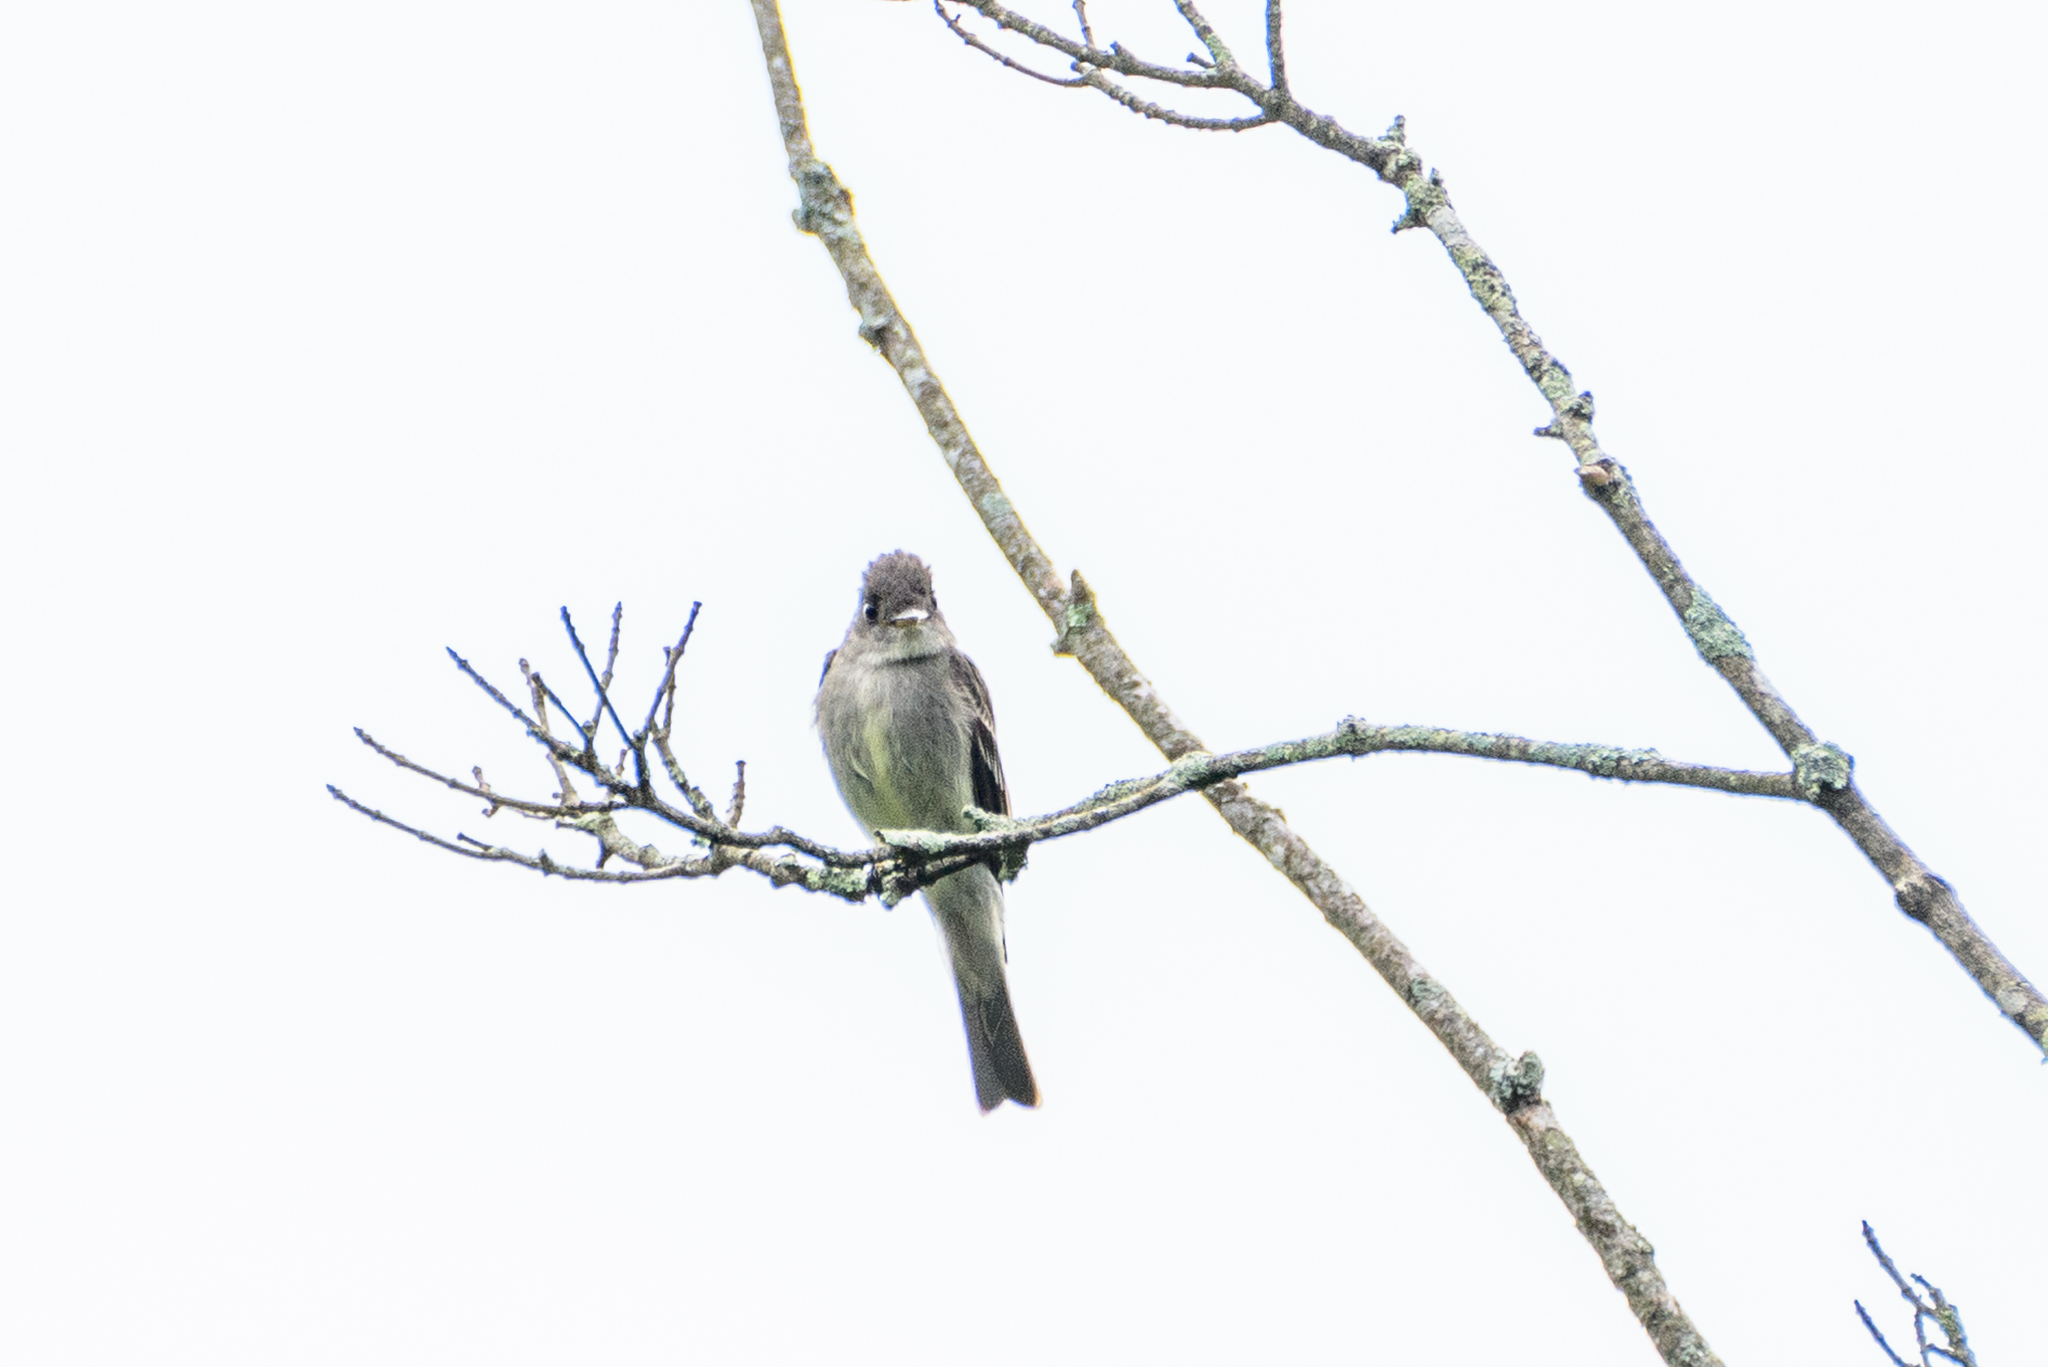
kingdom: Animalia
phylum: Chordata
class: Aves
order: Passeriformes
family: Tyrannidae
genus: Contopus
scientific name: Contopus virens
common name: Eastern wood-pewee
